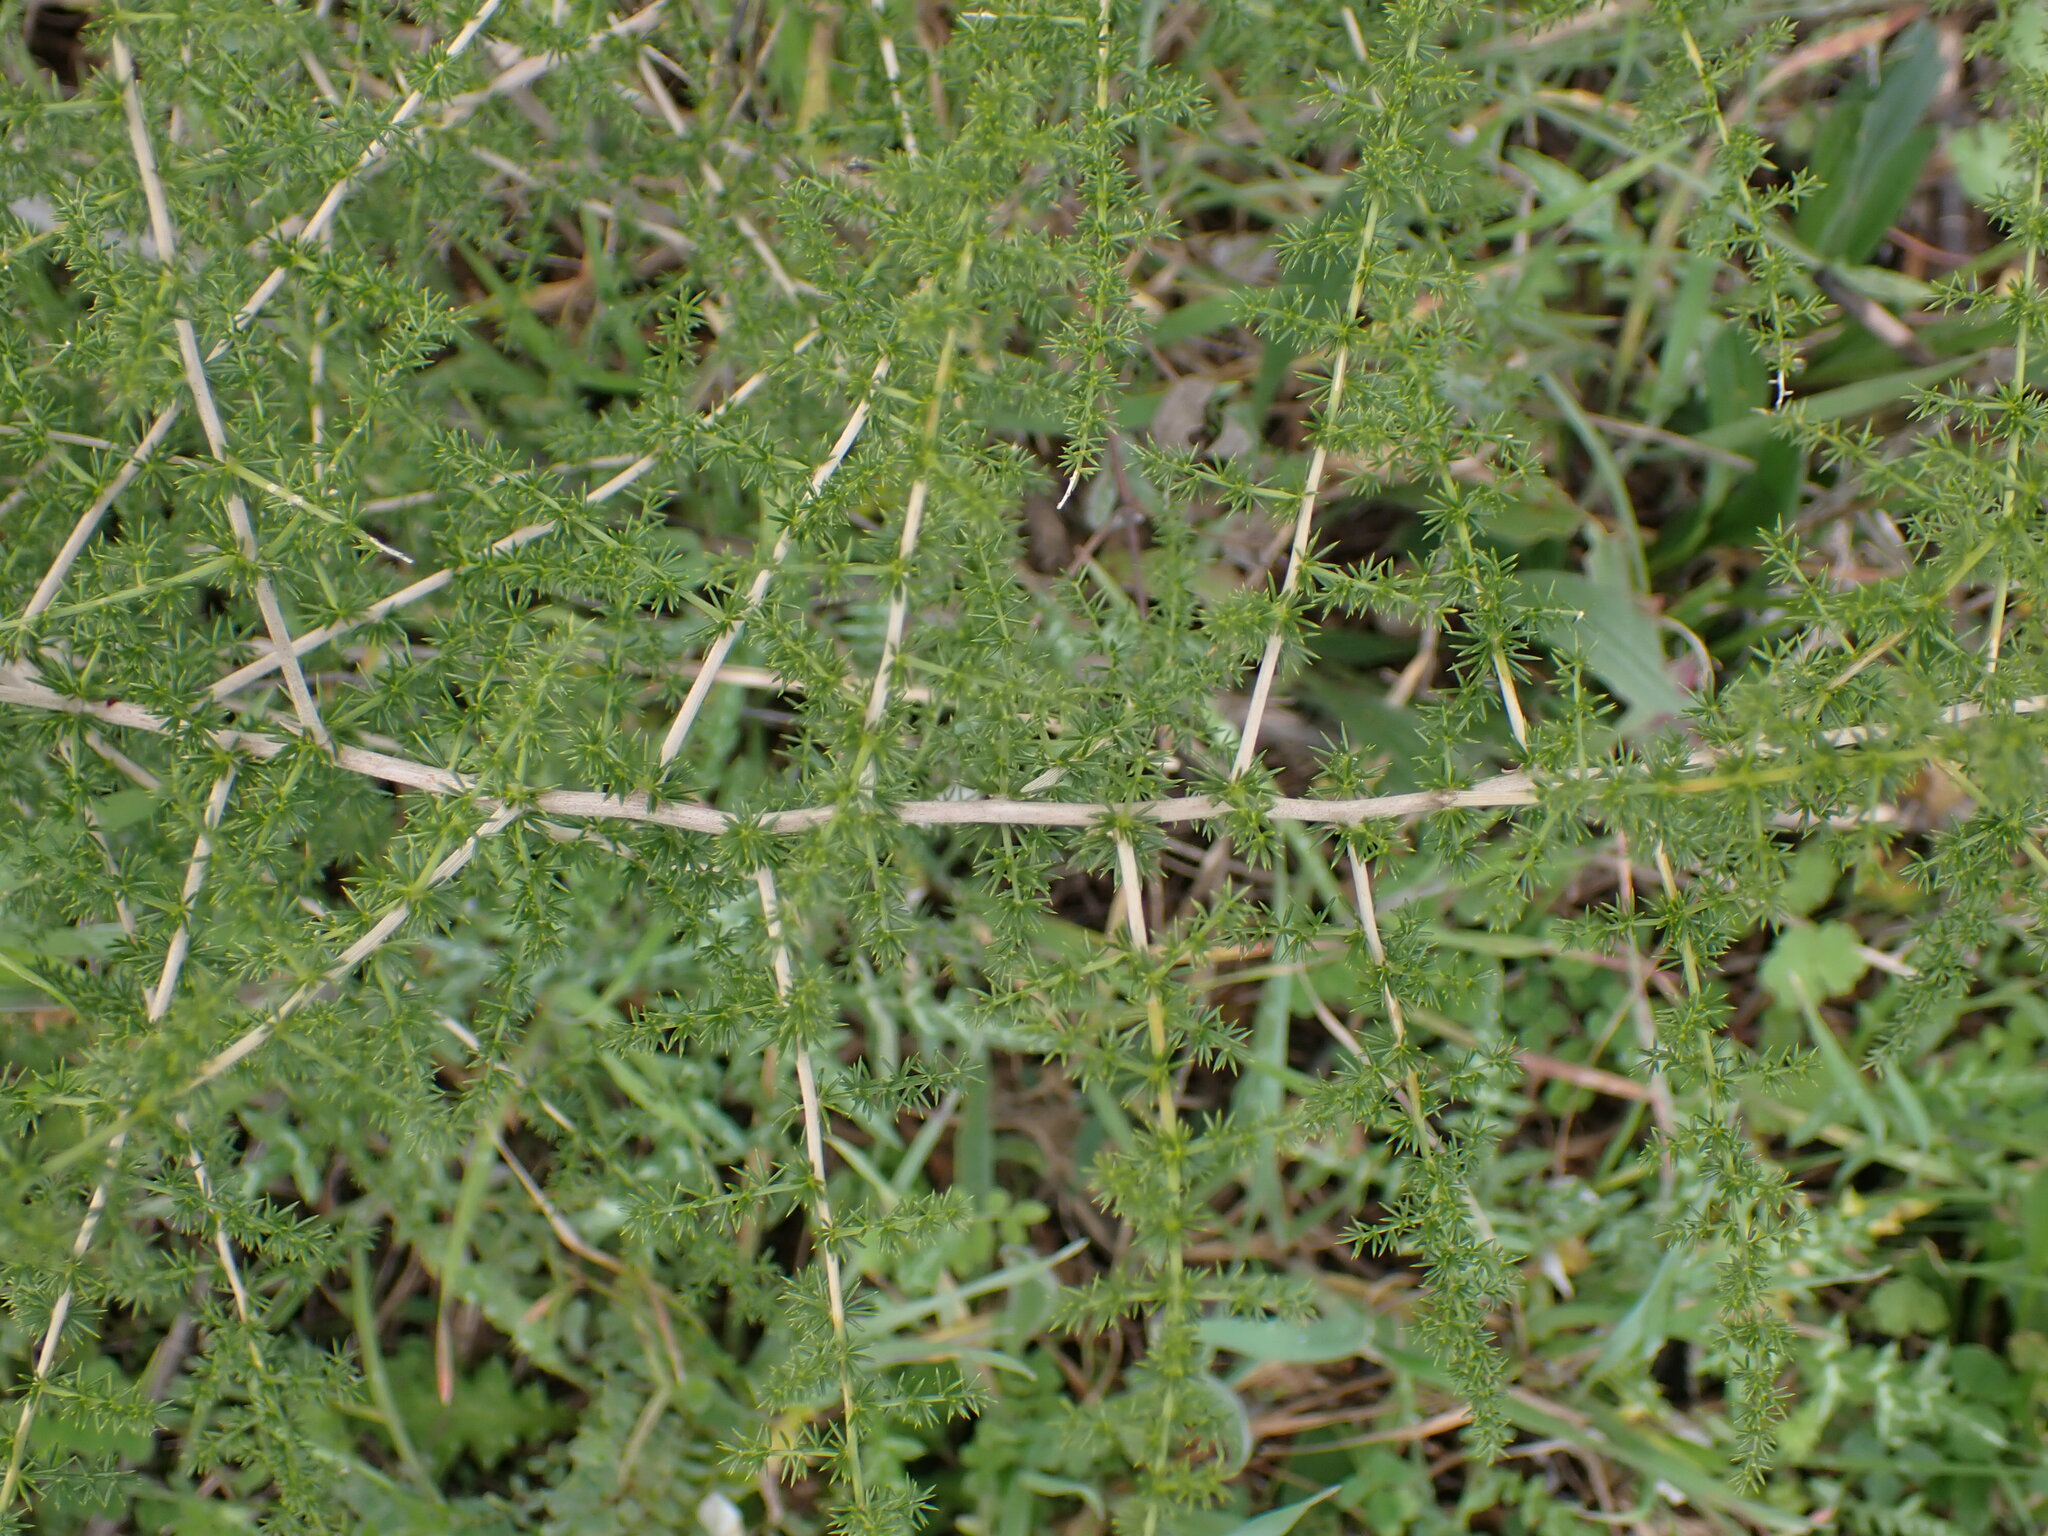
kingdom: Plantae
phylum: Tracheophyta
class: Liliopsida
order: Asparagales
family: Asparagaceae
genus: Asparagus
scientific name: Asparagus acutifolius
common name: Wild asparagus
